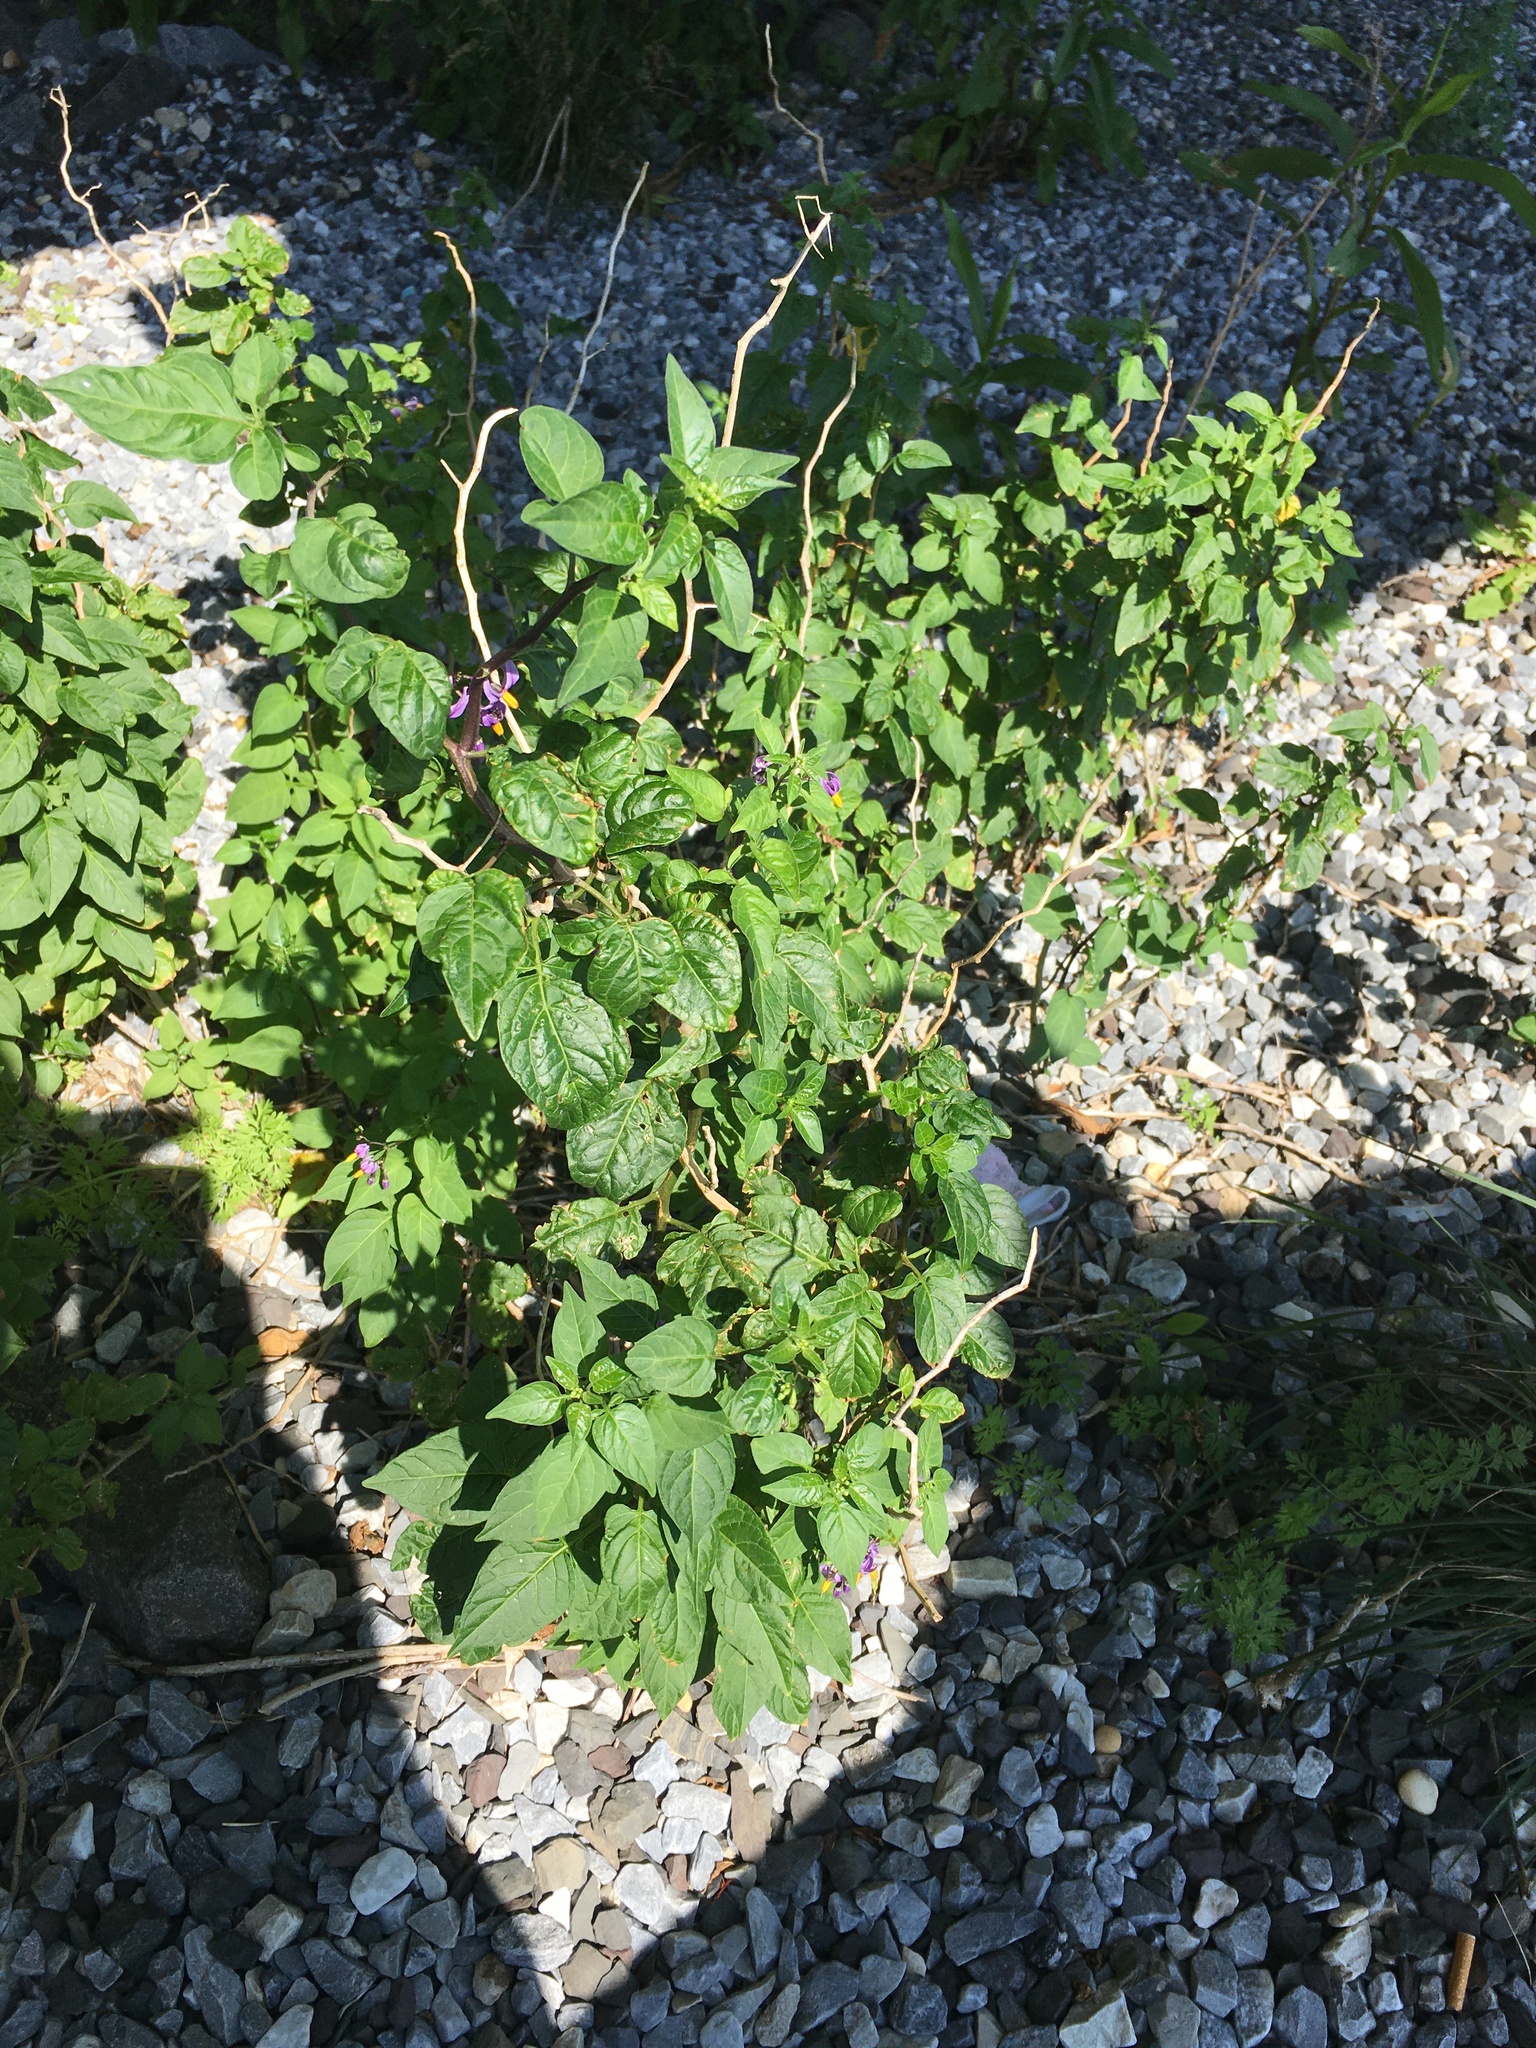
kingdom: Plantae
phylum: Tracheophyta
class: Magnoliopsida
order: Solanales
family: Solanaceae
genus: Solanum
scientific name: Solanum dulcamara
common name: Climbing nightshade
